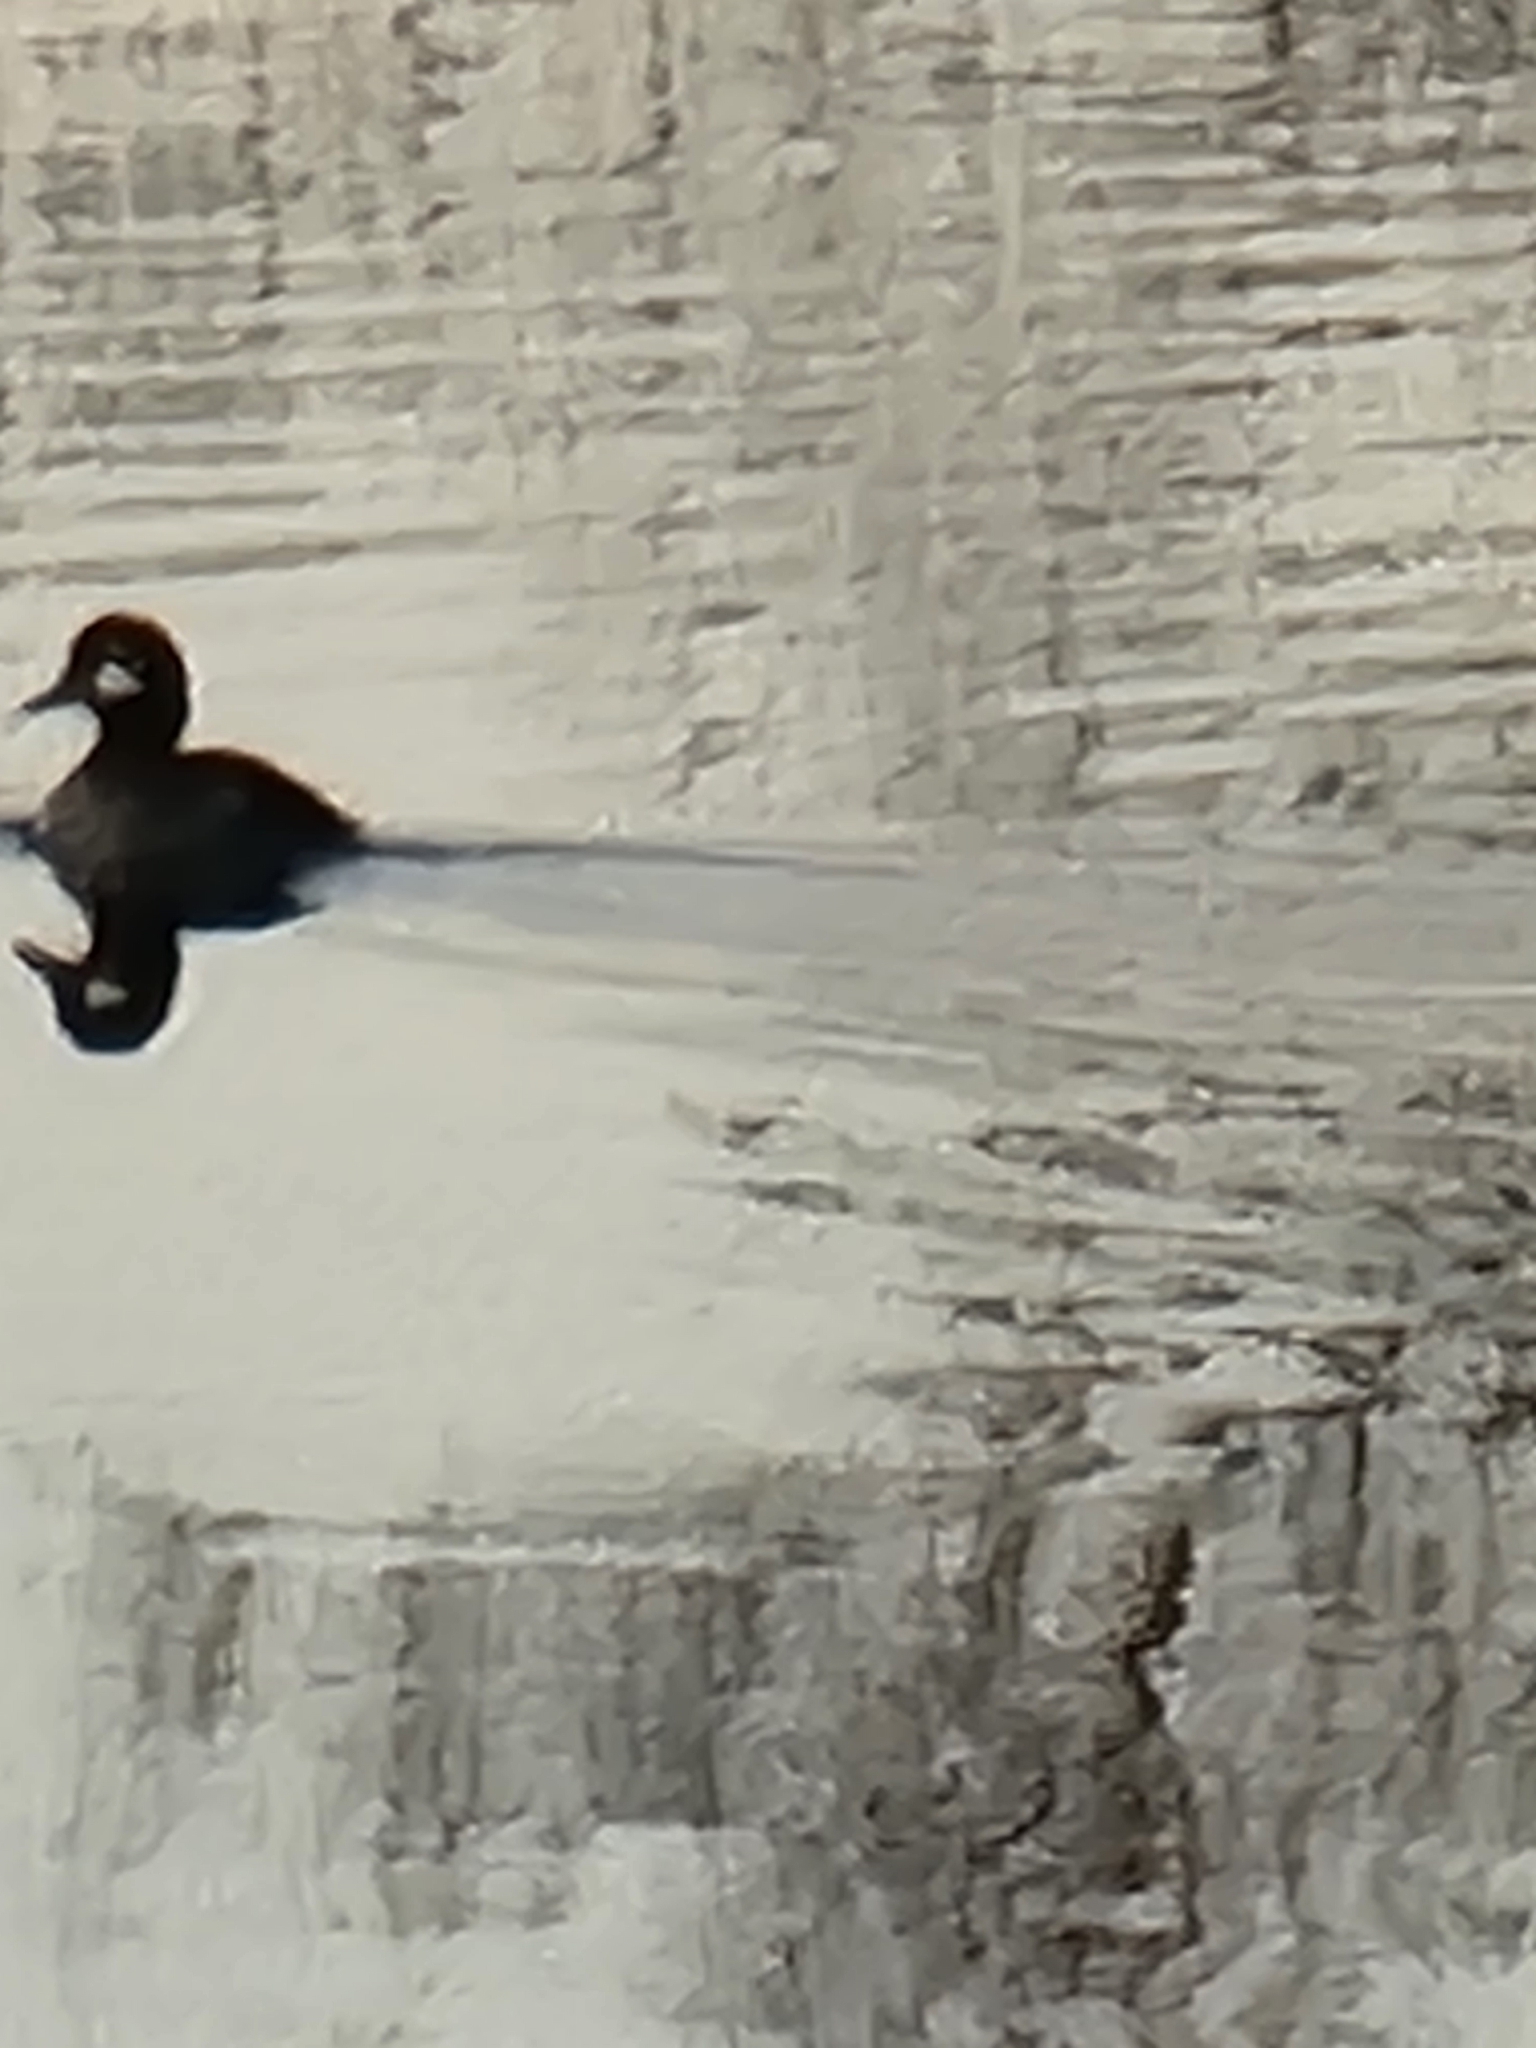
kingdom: Animalia
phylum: Chordata
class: Aves
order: Anseriformes
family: Anatidae
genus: Bucephala
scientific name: Bucephala albeola
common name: Bufflehead
